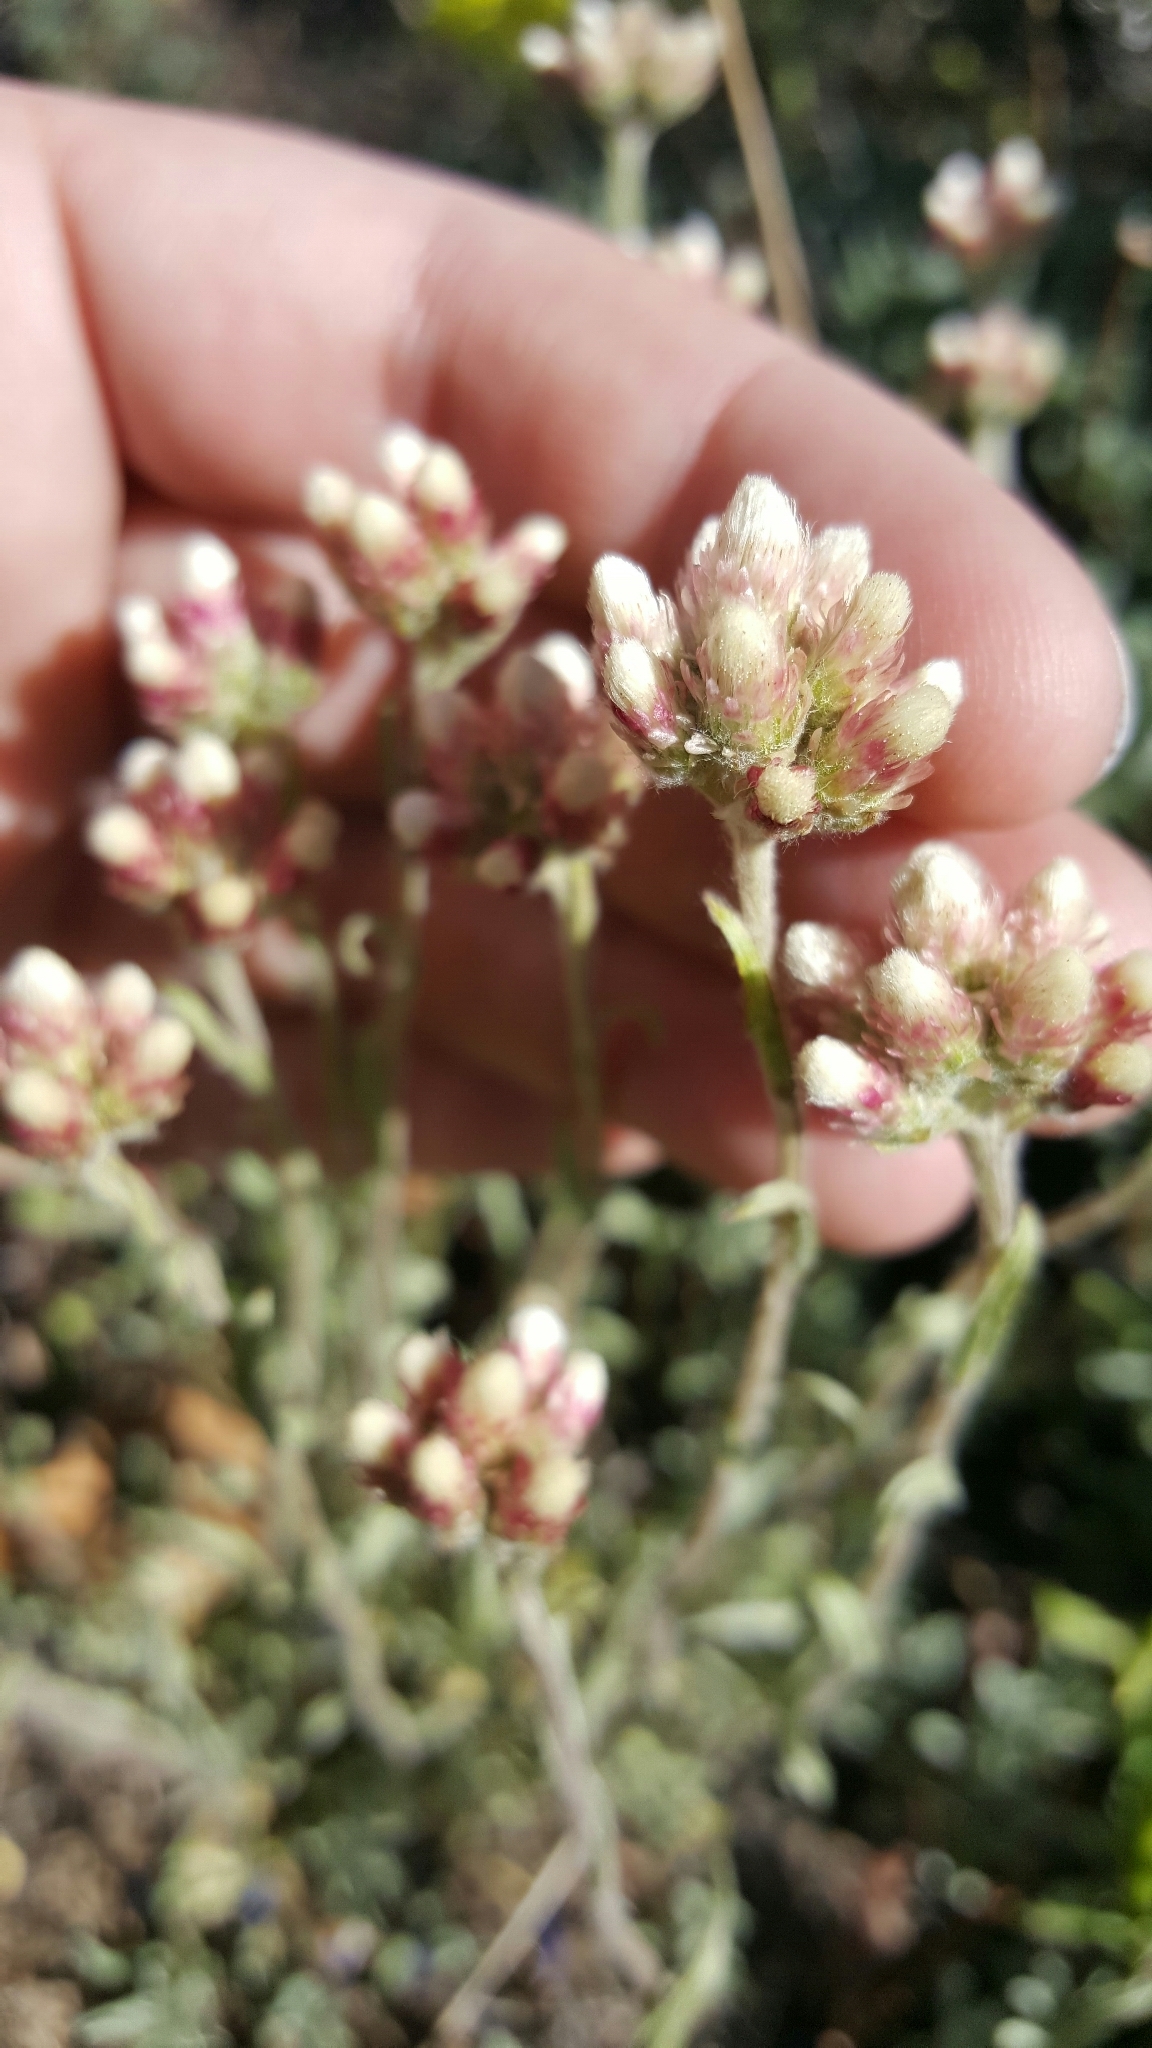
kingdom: Plantae
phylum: Tracheophyta
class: Magnoliopsida
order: Asterales
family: Asteraceae
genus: Antennaria
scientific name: Antennaria rosea
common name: Rosy pussytoes
